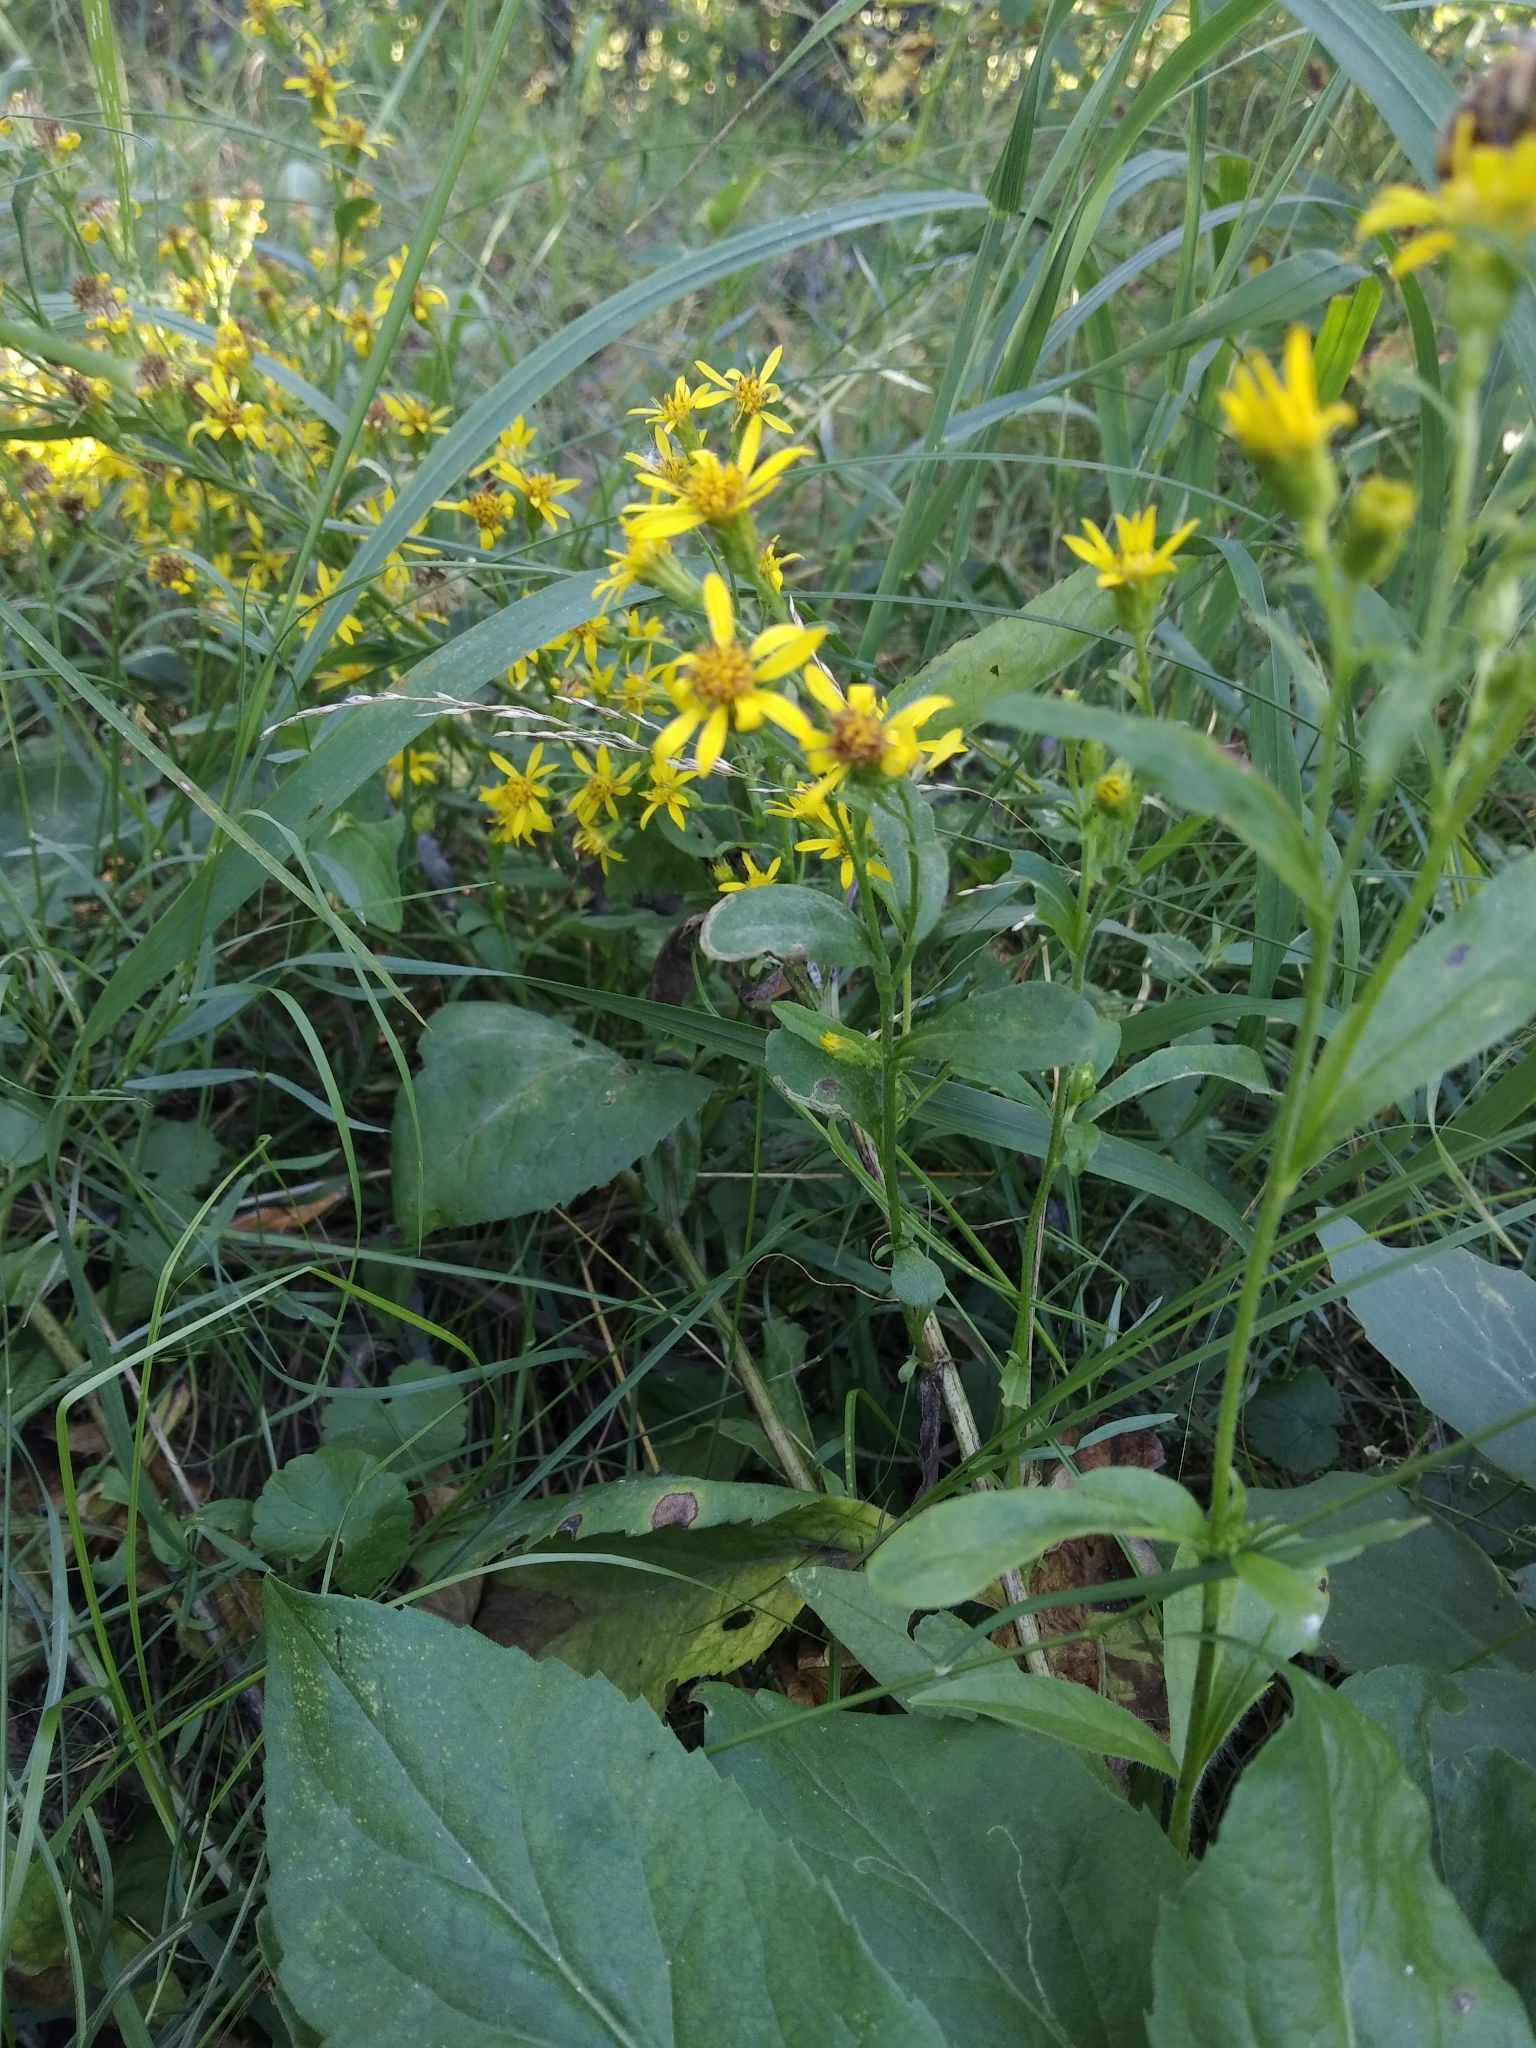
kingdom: Plantae
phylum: Tracheophyta
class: Magnoliopsida
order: Asterales
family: Asteraceae
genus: Solidago
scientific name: Solidago virgaurea
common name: Goldenrod
